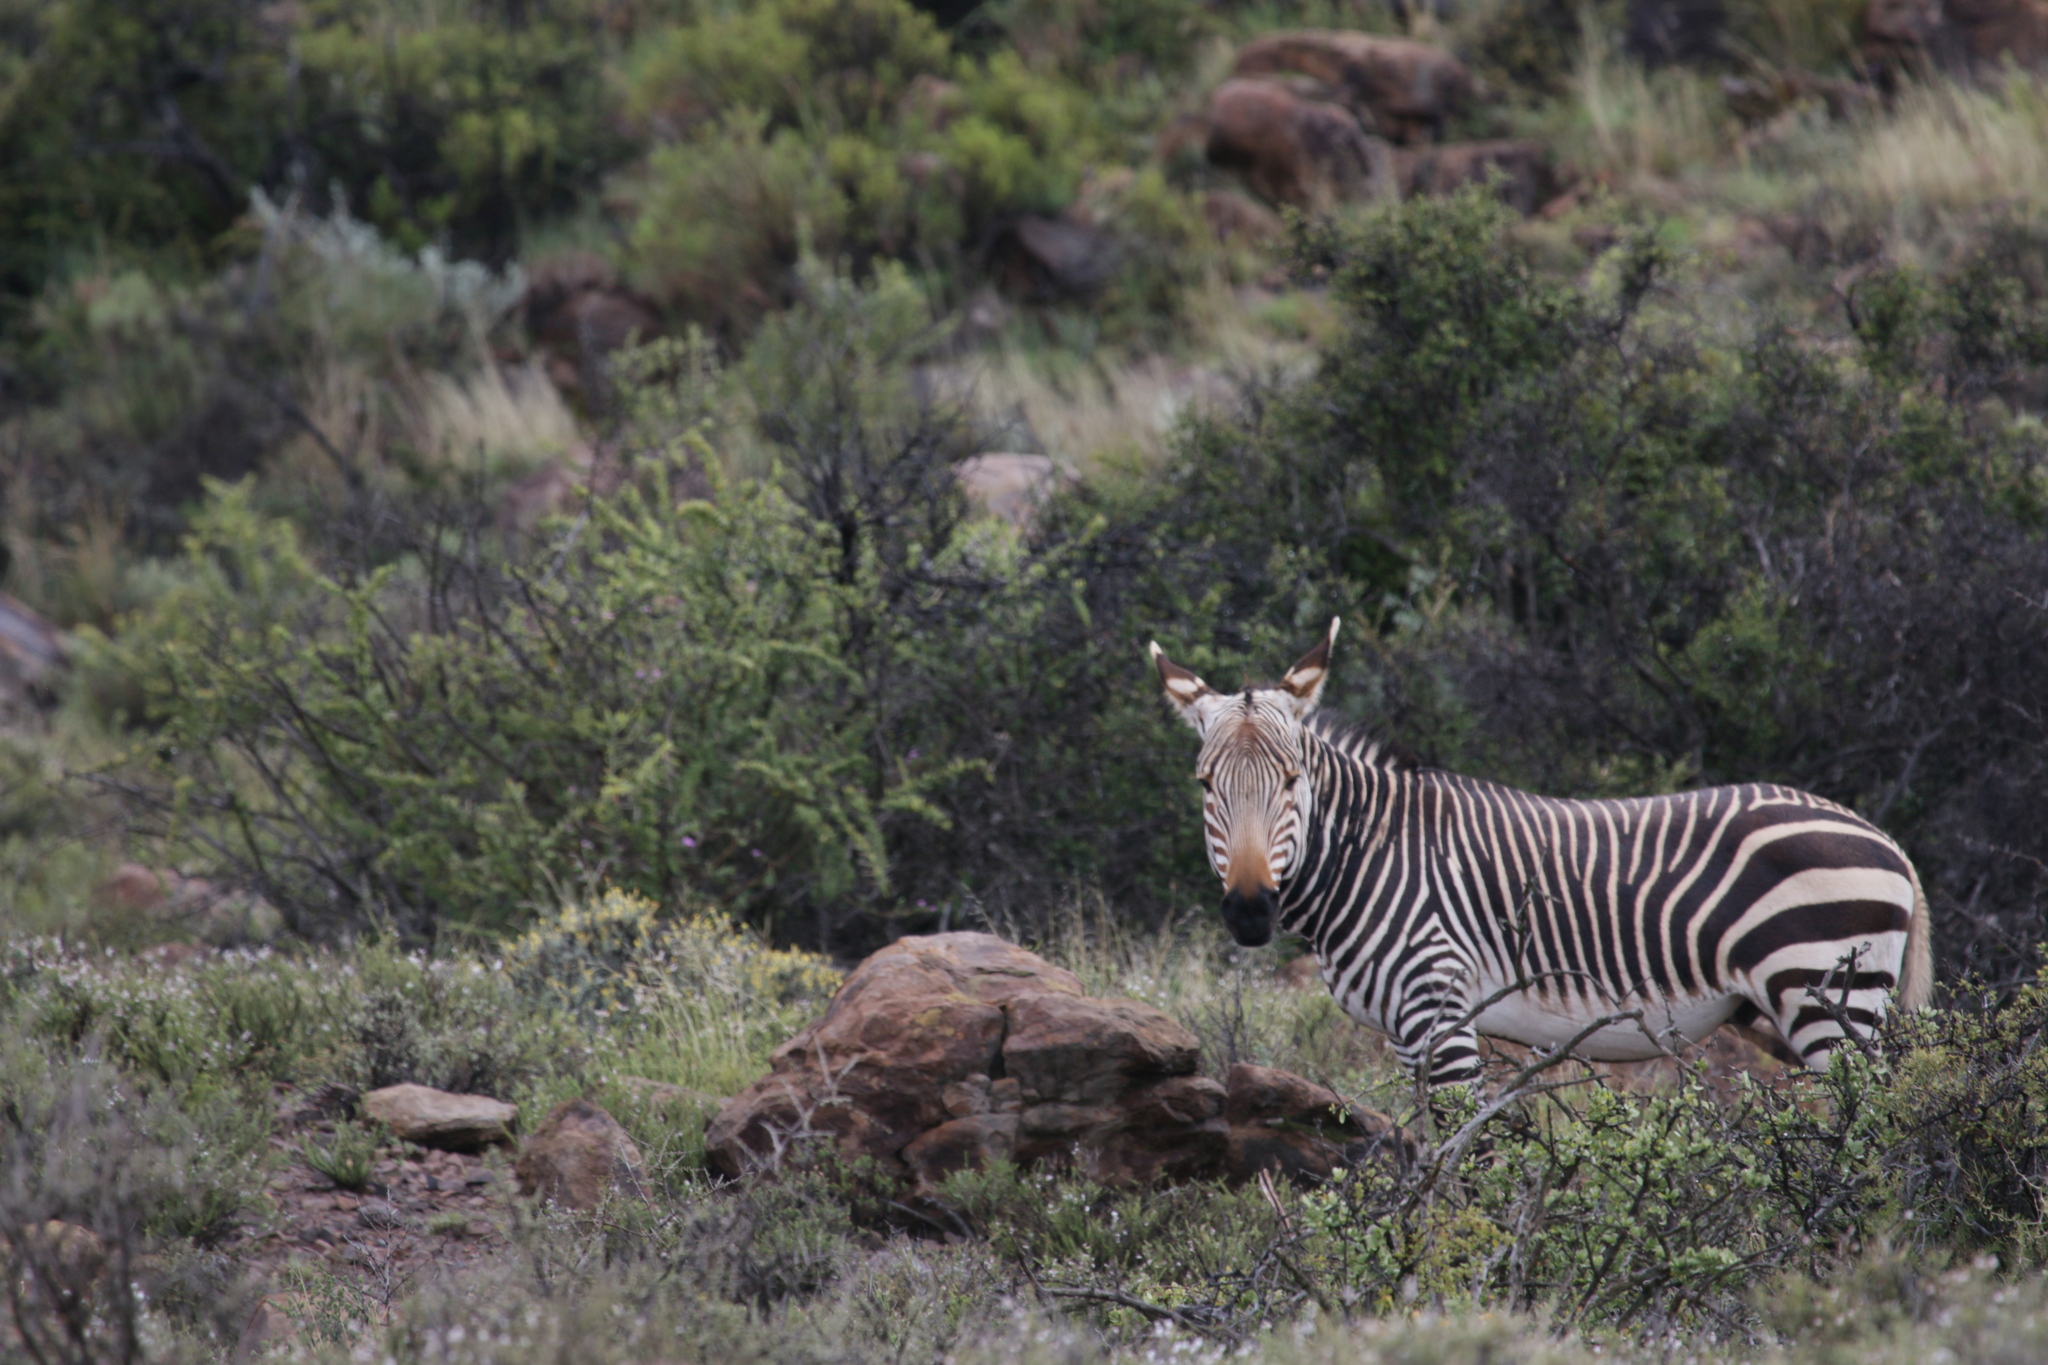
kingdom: Animalia
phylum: Chordata
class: Mammalia
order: Perissodactyla
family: Equidae
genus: Equus
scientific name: Equus zebra
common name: Mountain zebra
